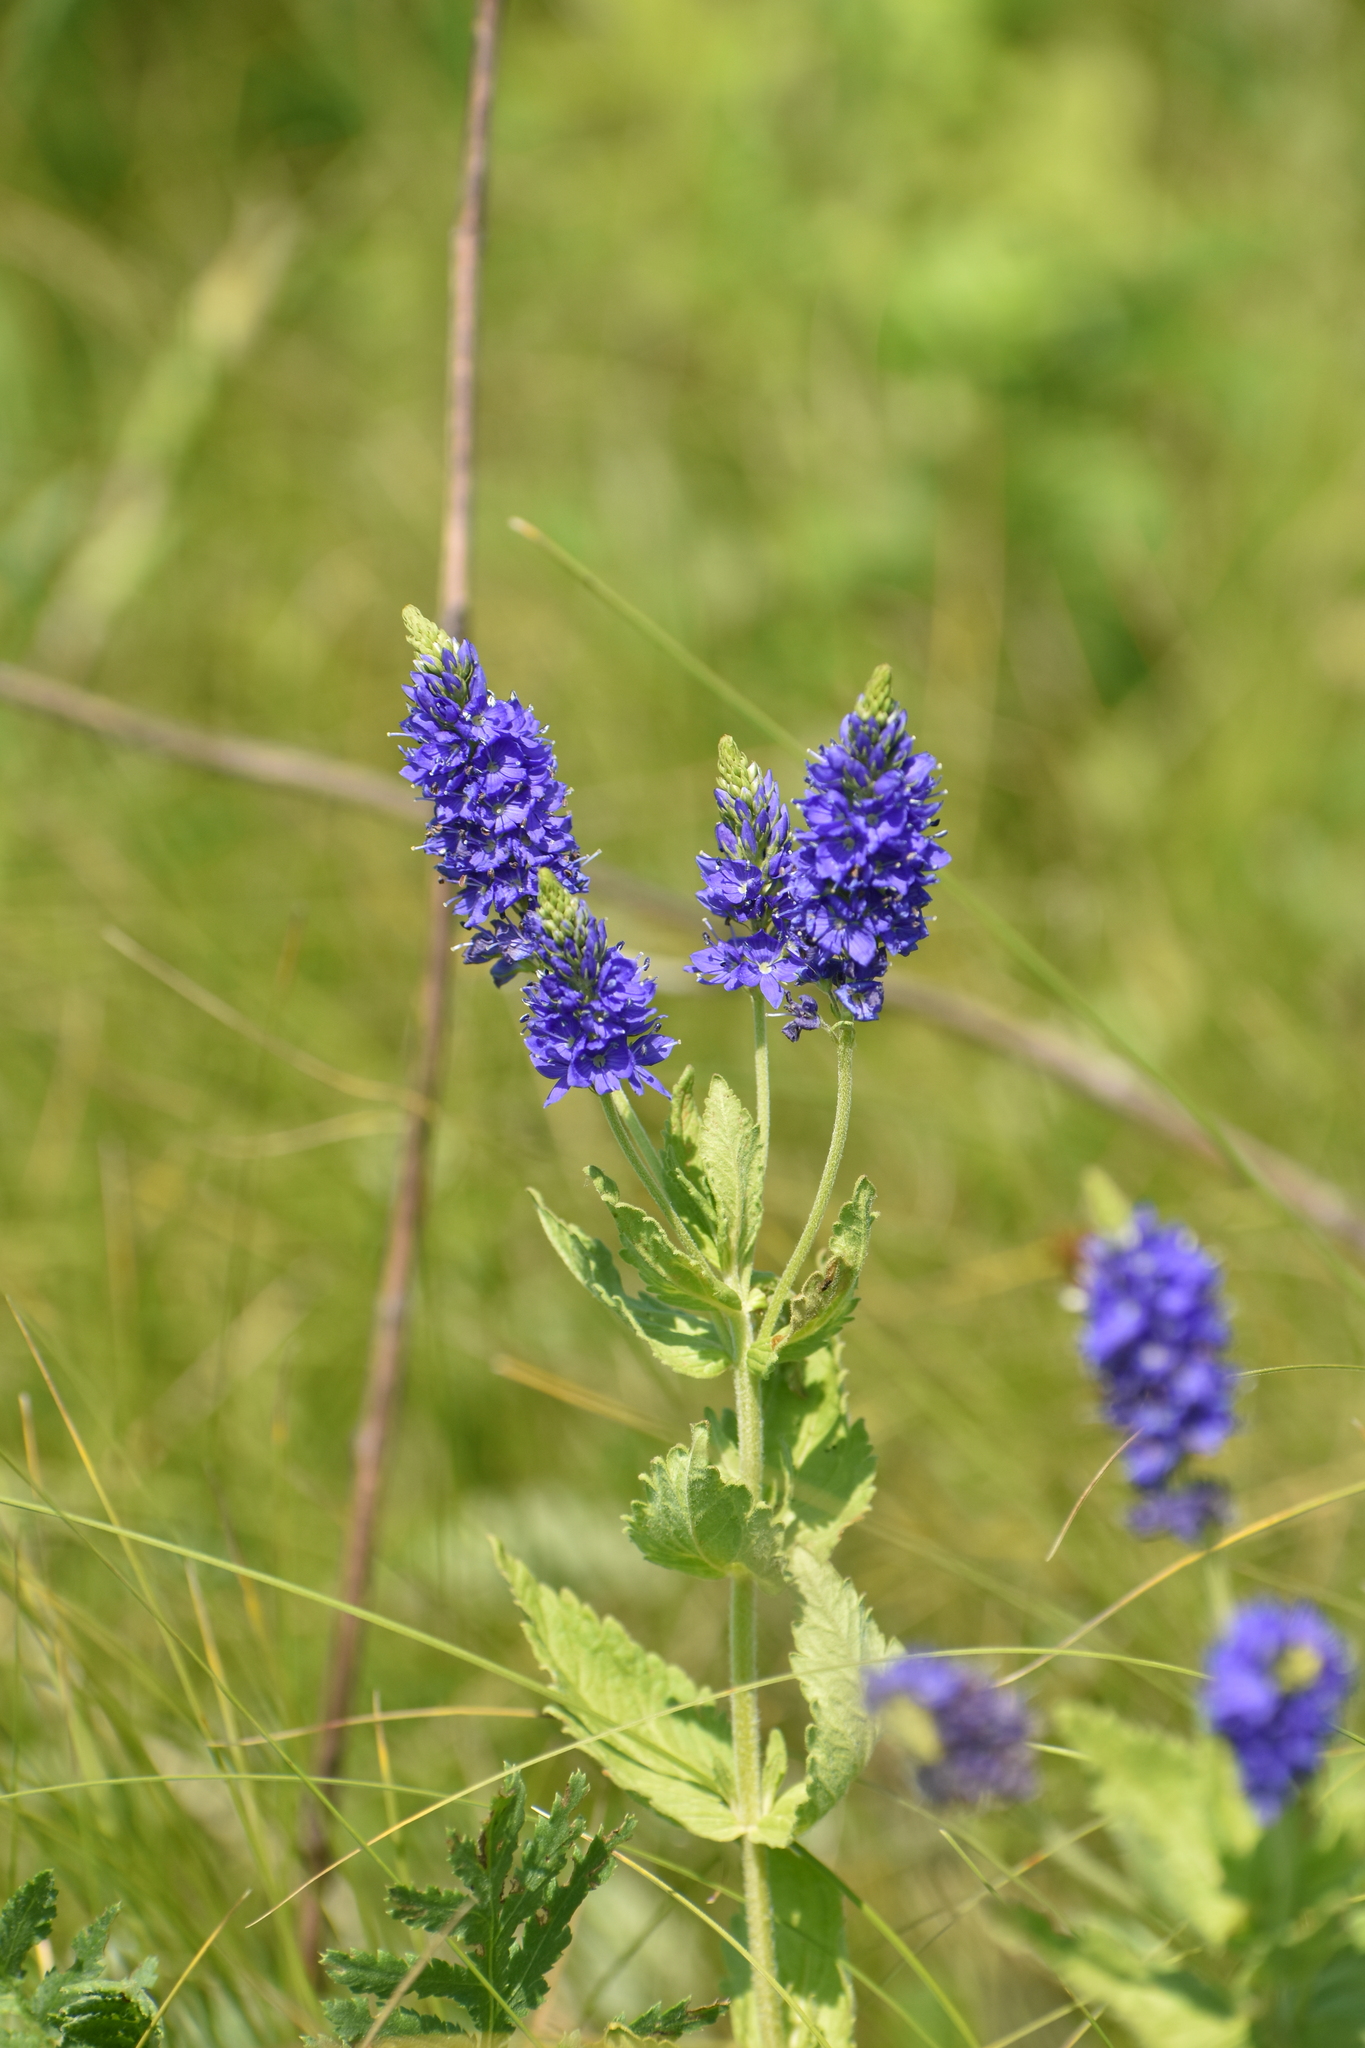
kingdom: Plantae
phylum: Tracheophyta
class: Magnoliopsida
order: Lamiales
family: Plantaginaceae
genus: Veronica
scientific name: Veronica teucrium
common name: Large speedwell
